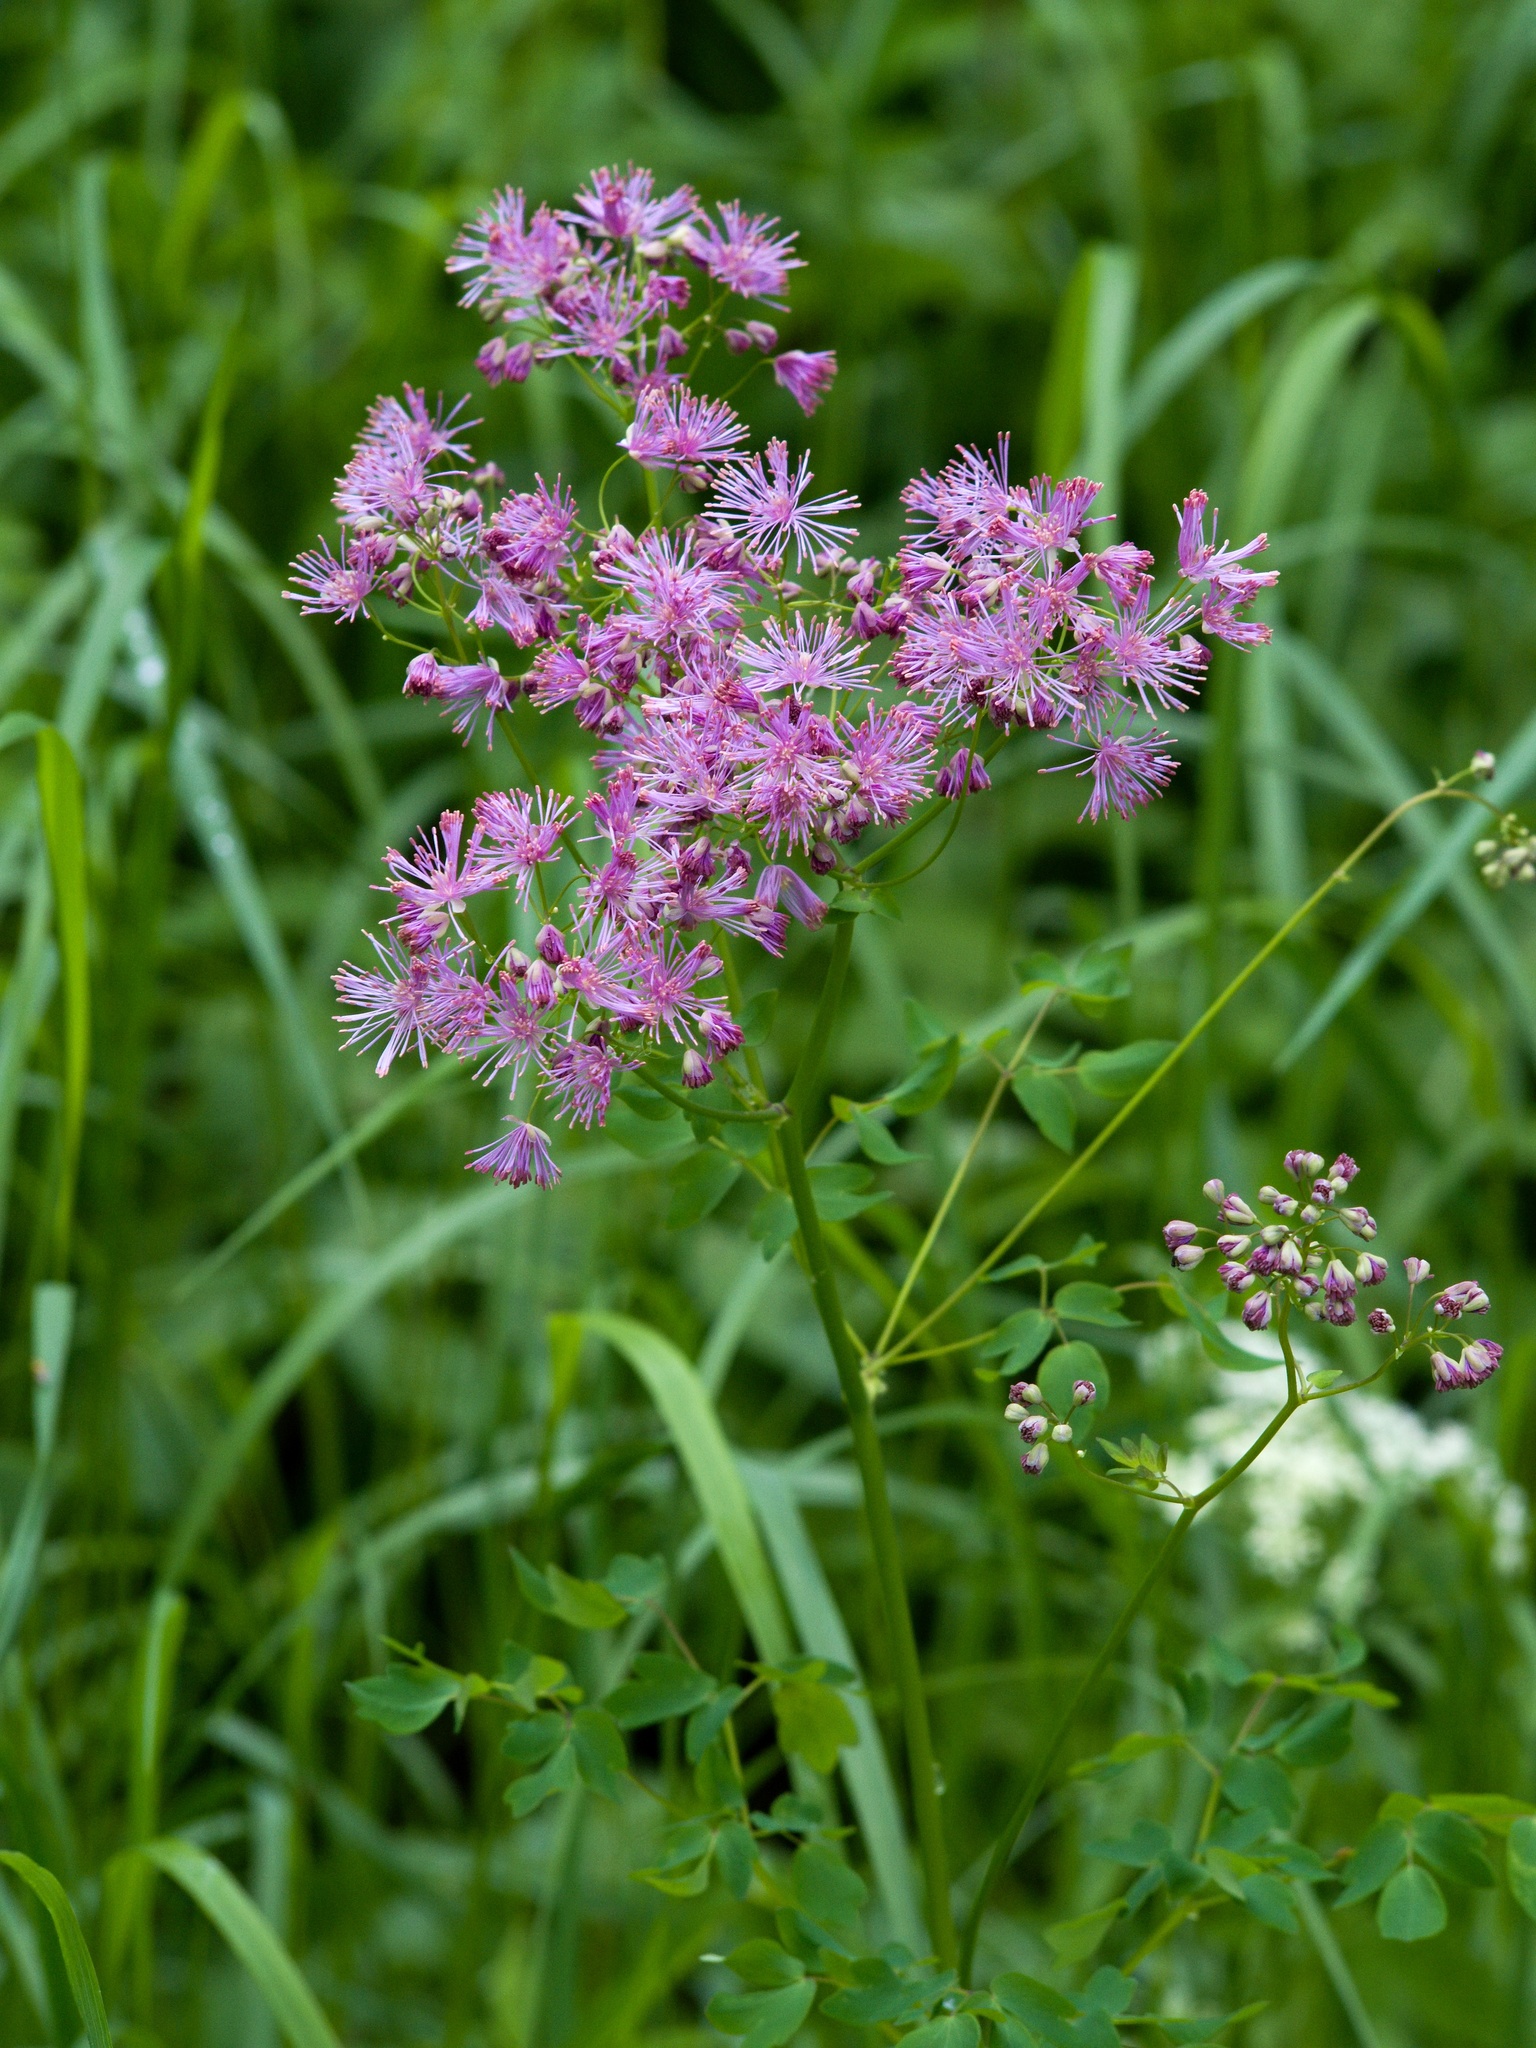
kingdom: Plantae
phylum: Tracheophyta
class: Magnoliopsida
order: Ranunculales
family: Ranunculaceae
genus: Thalictrum
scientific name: Thalictrum aquilegiifolium
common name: French meadow-rue
